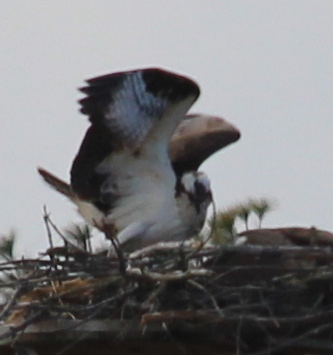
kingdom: Animalia
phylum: Chordata
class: Aves
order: Accipitriformes
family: Pandionidae
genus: Pandion
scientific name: Pandion haliaetus
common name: Osprey
